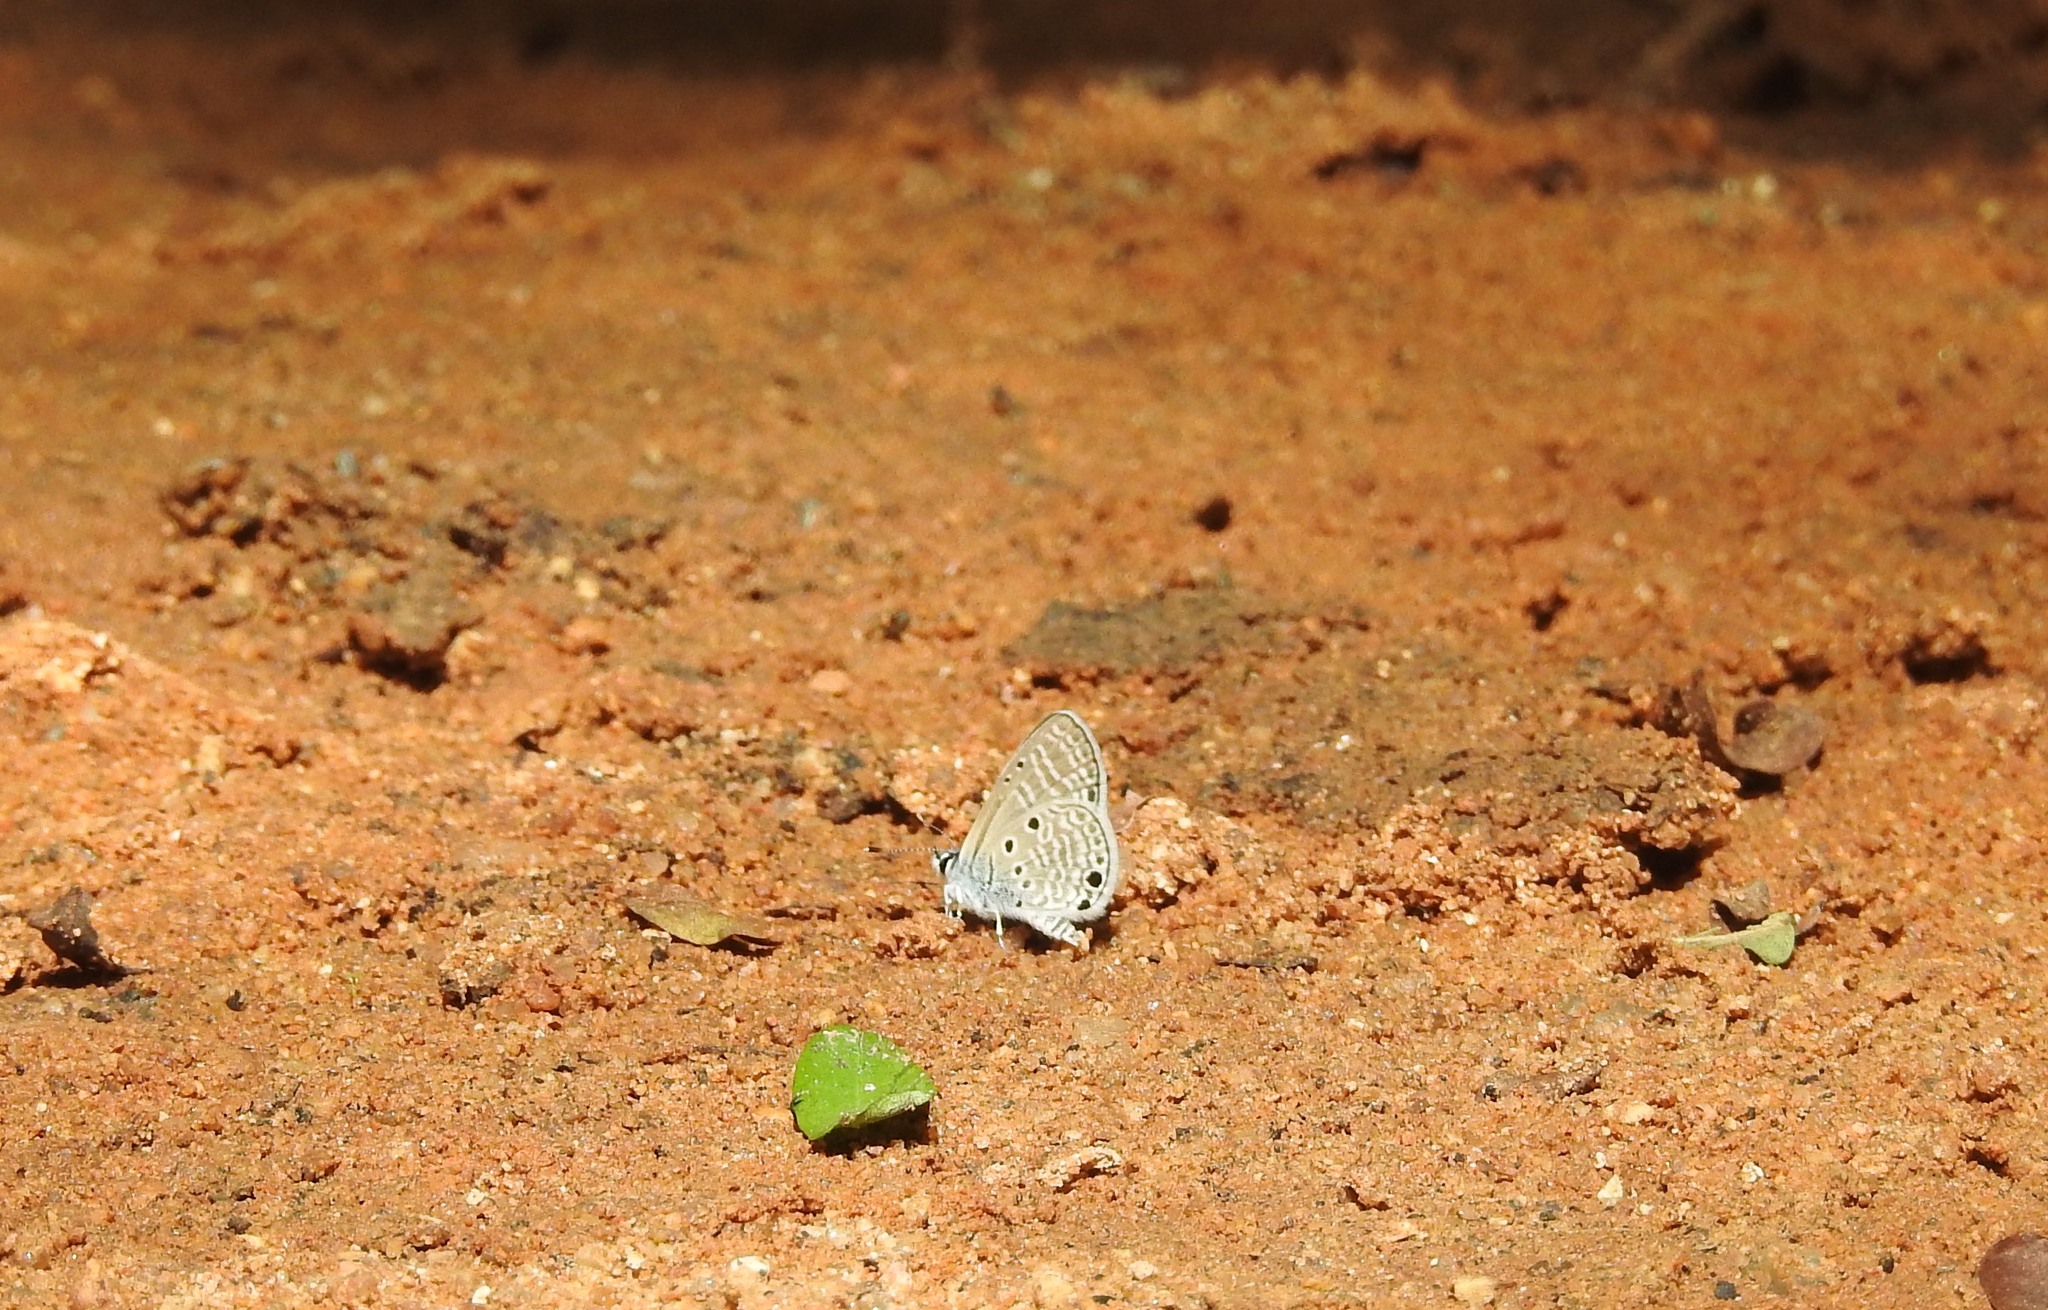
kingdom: Animalia
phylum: Arthropoda
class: Insecta
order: Lepidoptera
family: Lycaenidae
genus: Azanus
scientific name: Azanus ubaldus
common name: Desert babul blue
